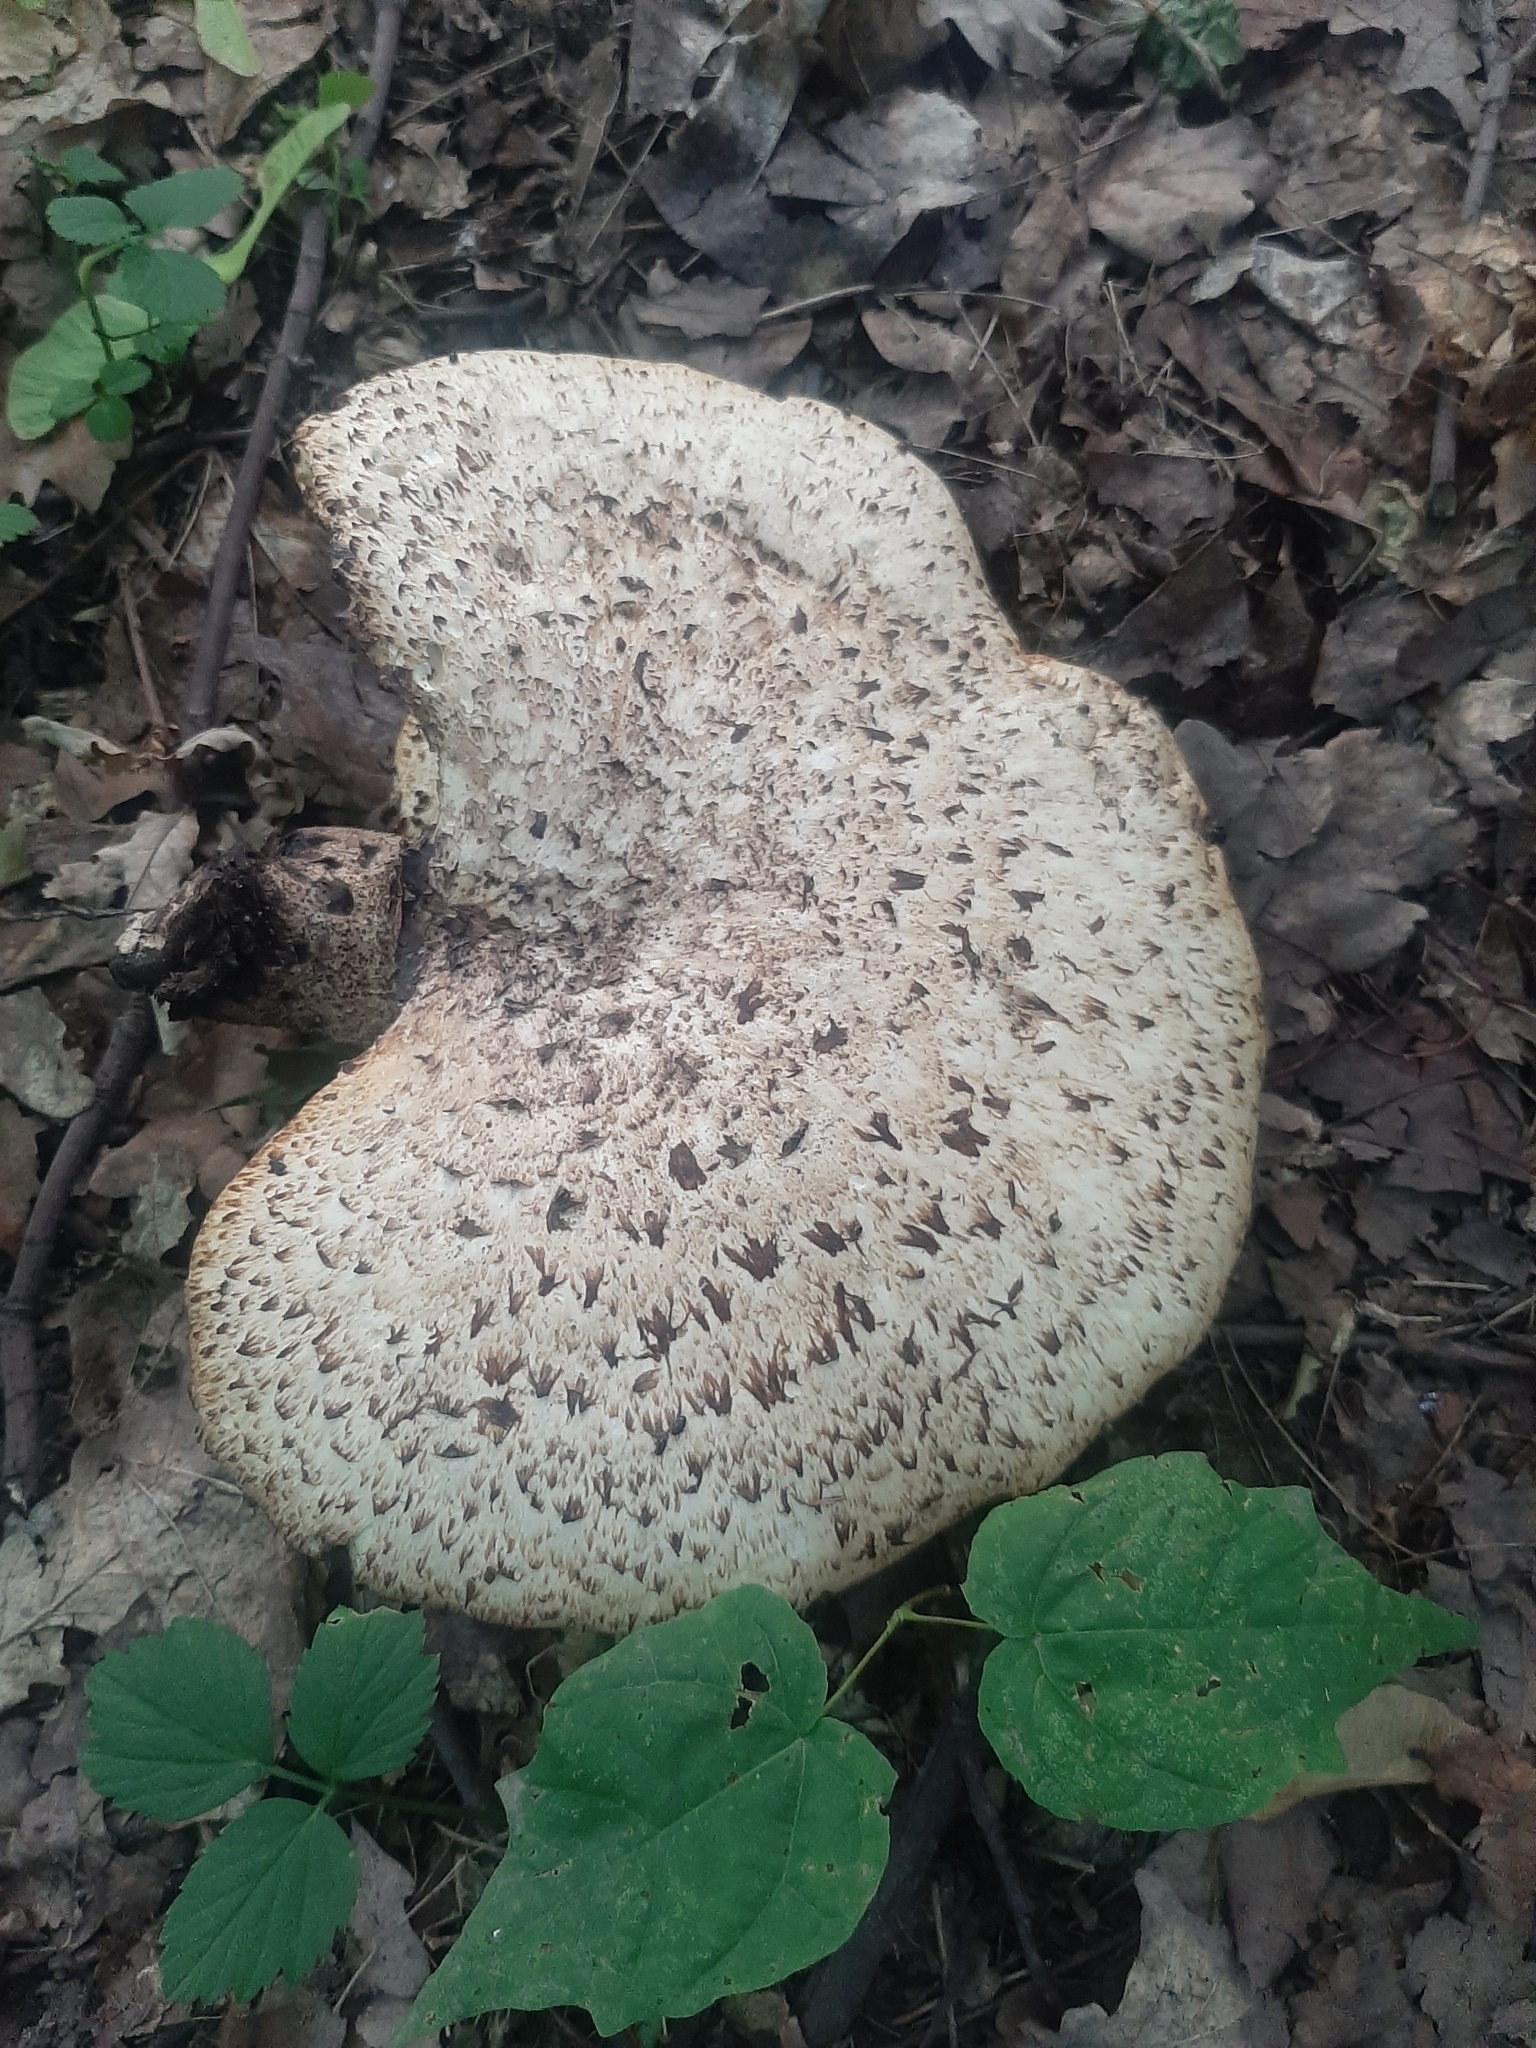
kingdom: Fungi
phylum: Basidiomycota
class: Agaricomycetes
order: Polyporales
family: Polyporaceae
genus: Cerioporus
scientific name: Cerioporus squamosus
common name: Dryad's saddle
